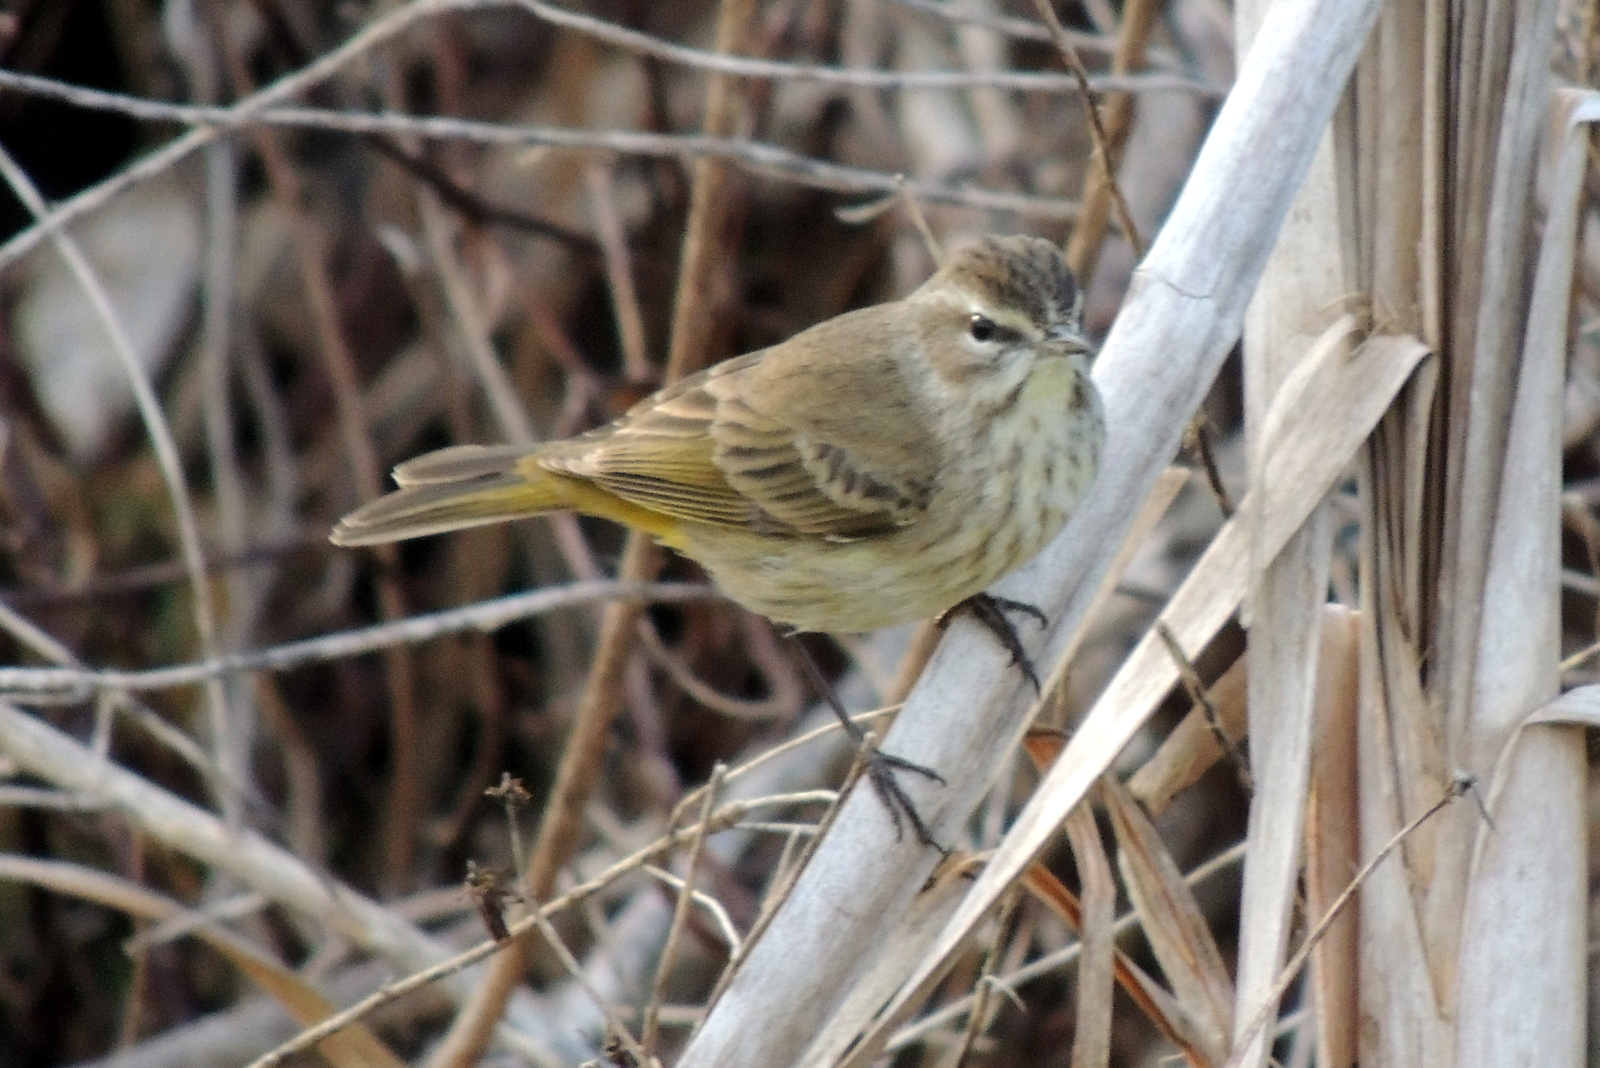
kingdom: Animalia
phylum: Chordata
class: Aves
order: Passeriformes
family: Parulidae
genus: Setophaga
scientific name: Setophaga palmarum
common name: Palm warbler
